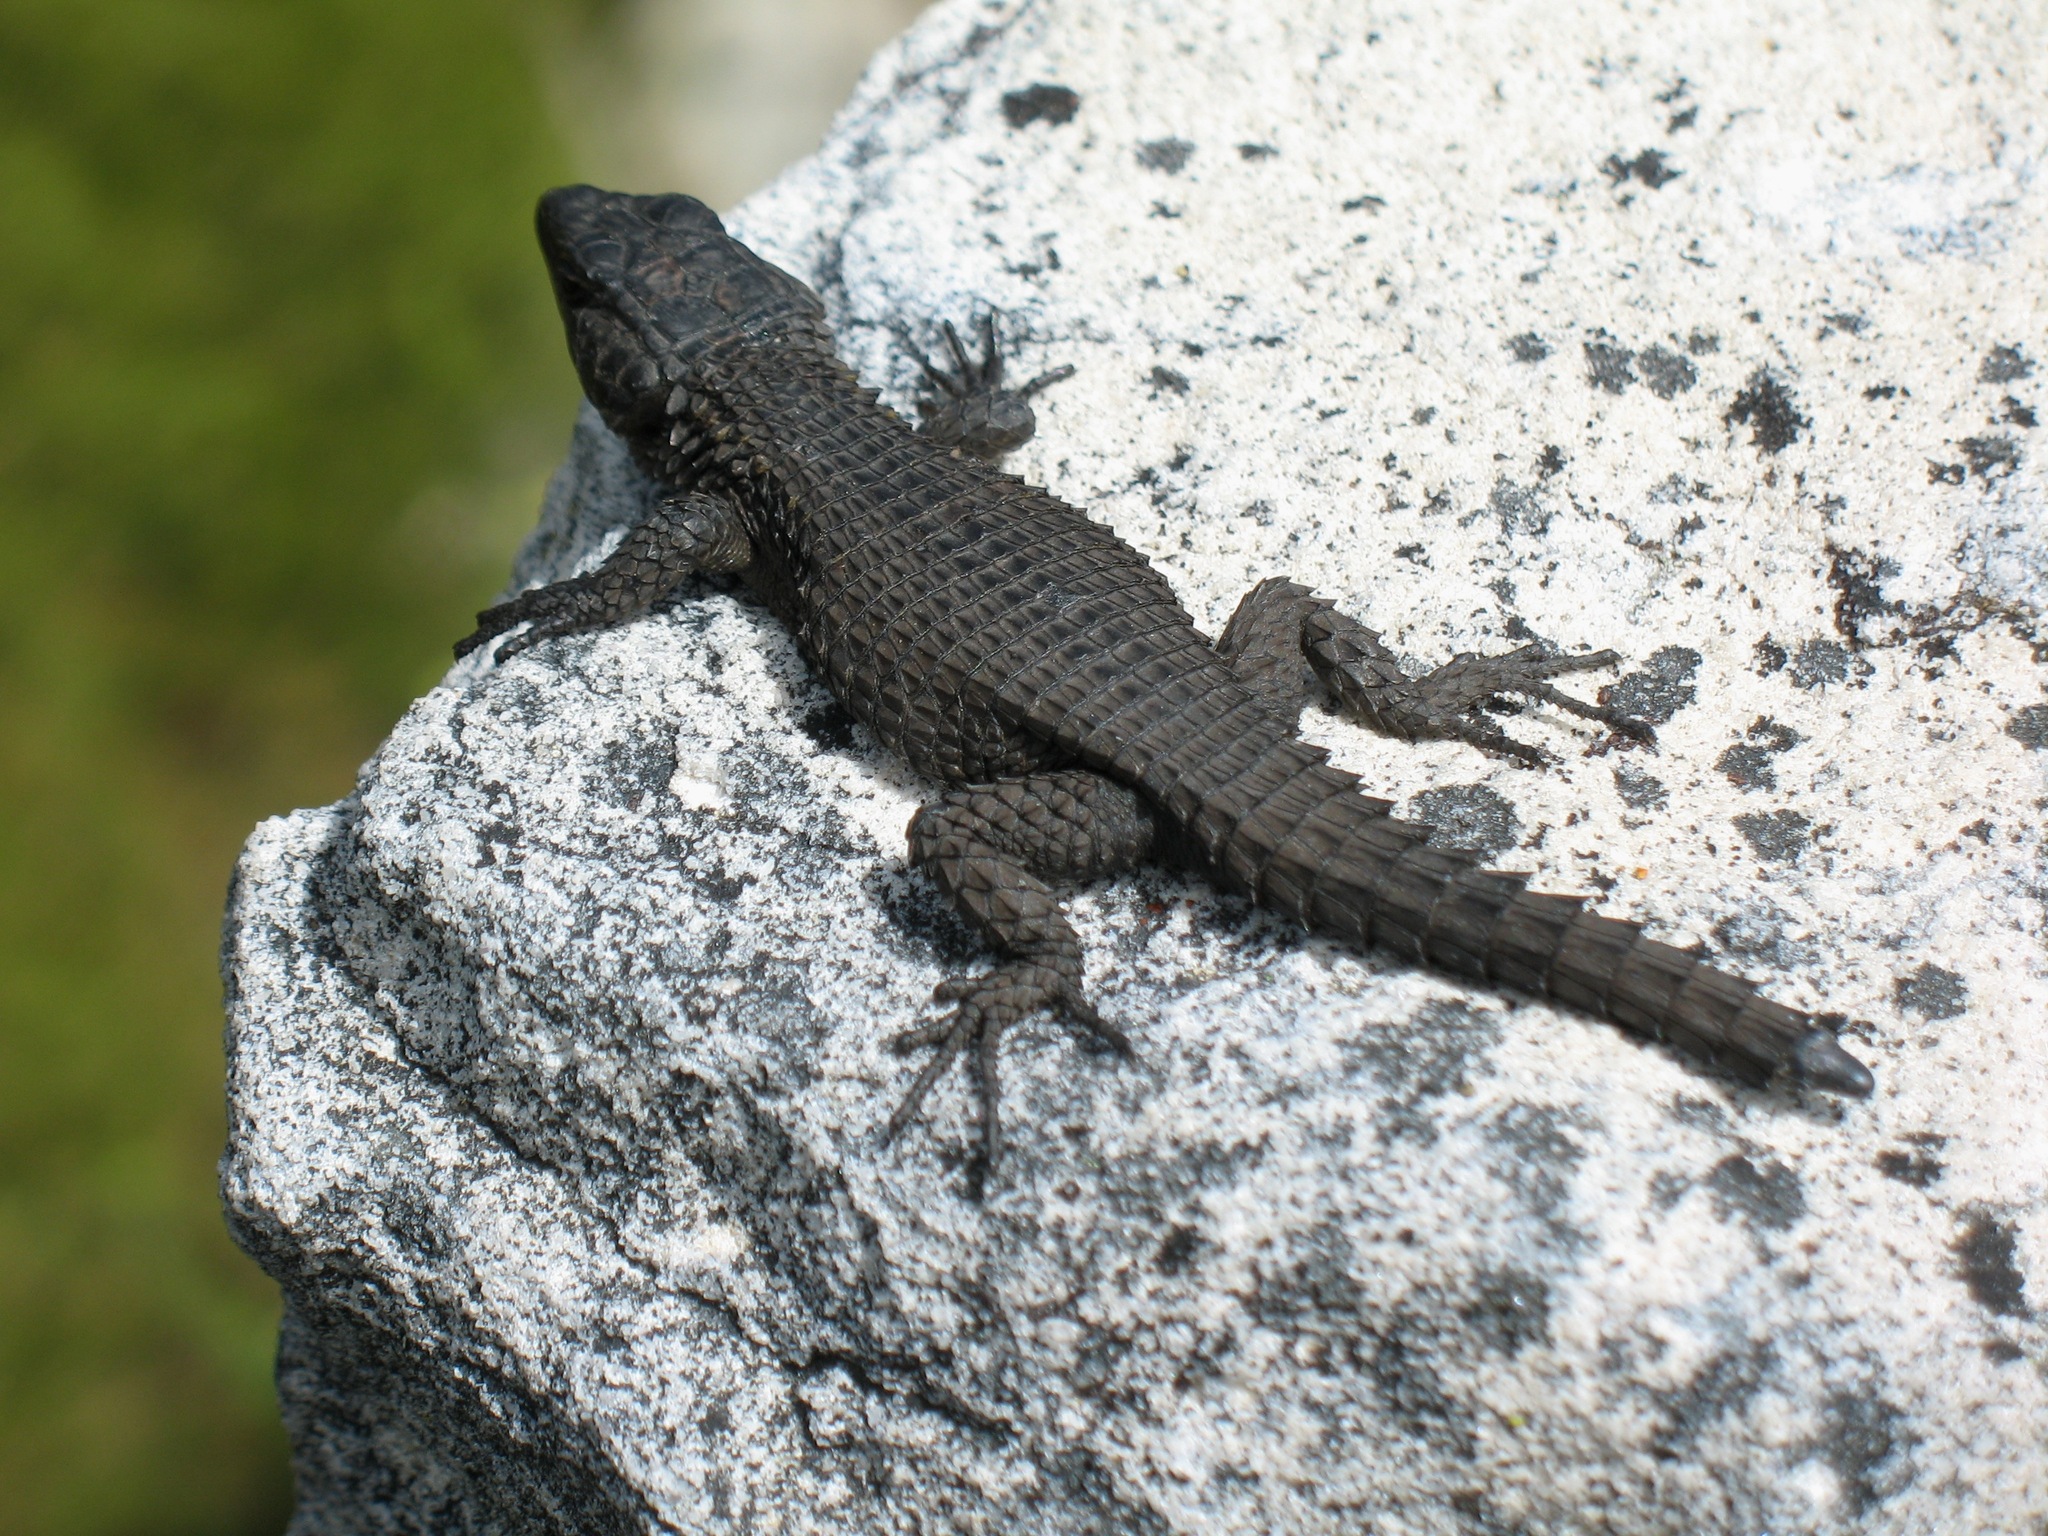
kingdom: Animalia
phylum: Chordata
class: Squamata
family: Cordylidae
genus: Cordylus
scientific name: Cordylus niger
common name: Black girdled lizard
